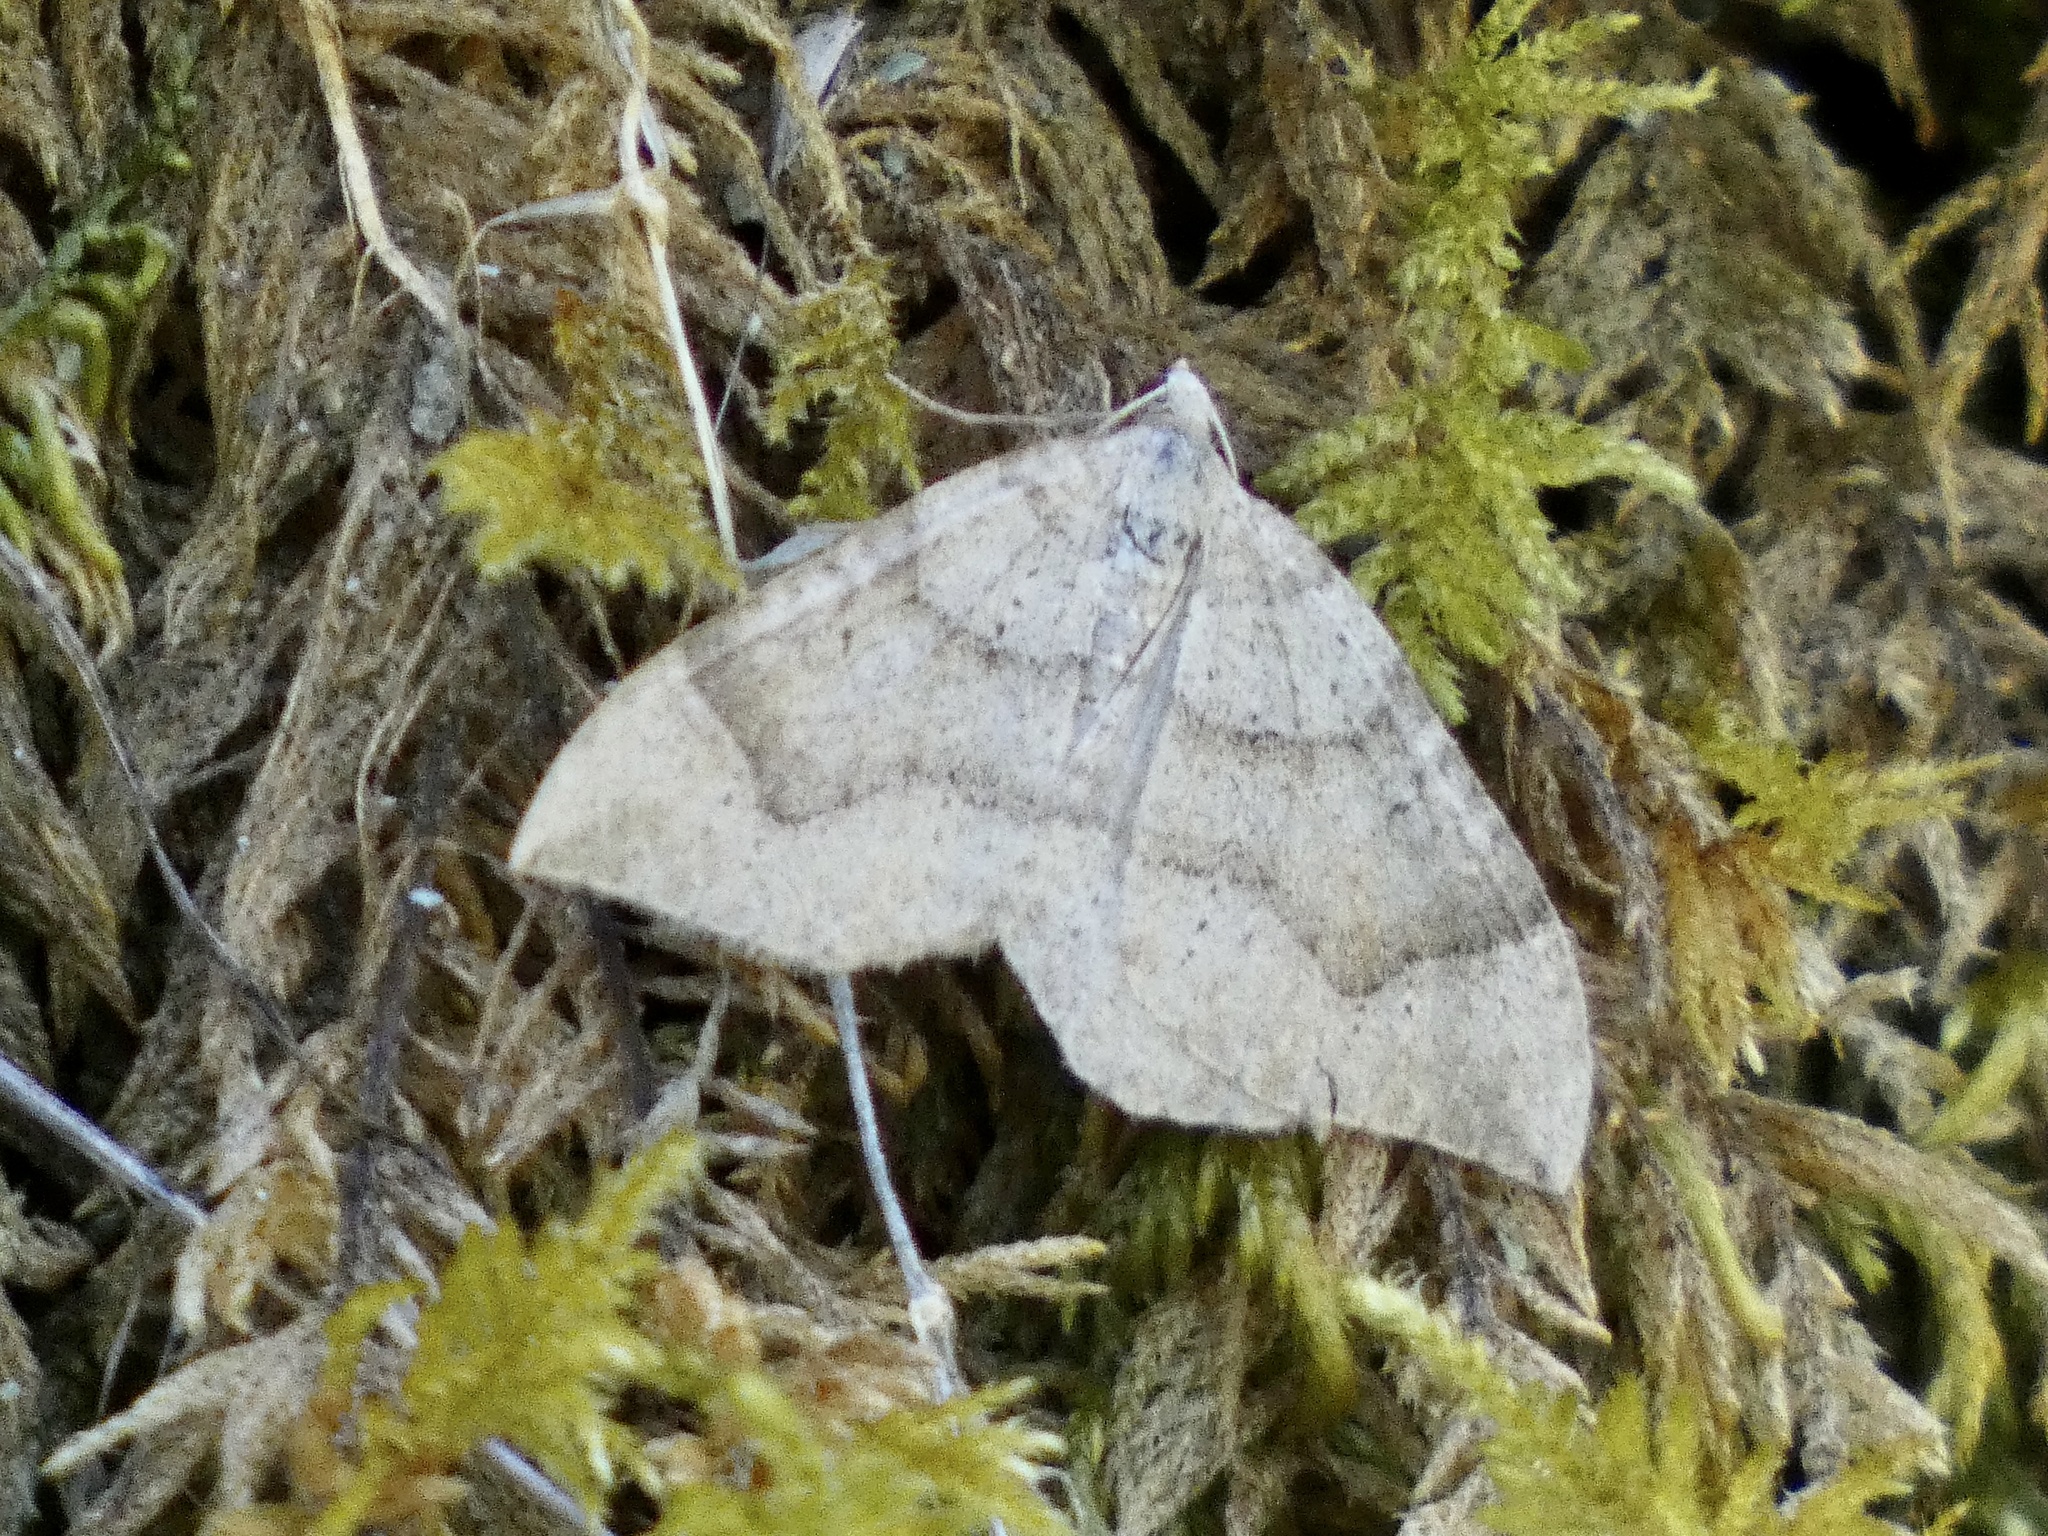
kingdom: Animalia
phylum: Arthropoda
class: Insecta
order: Lepidoptera
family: Geometridae
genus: Zenophleps
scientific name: Zenophleps lignicolorata
